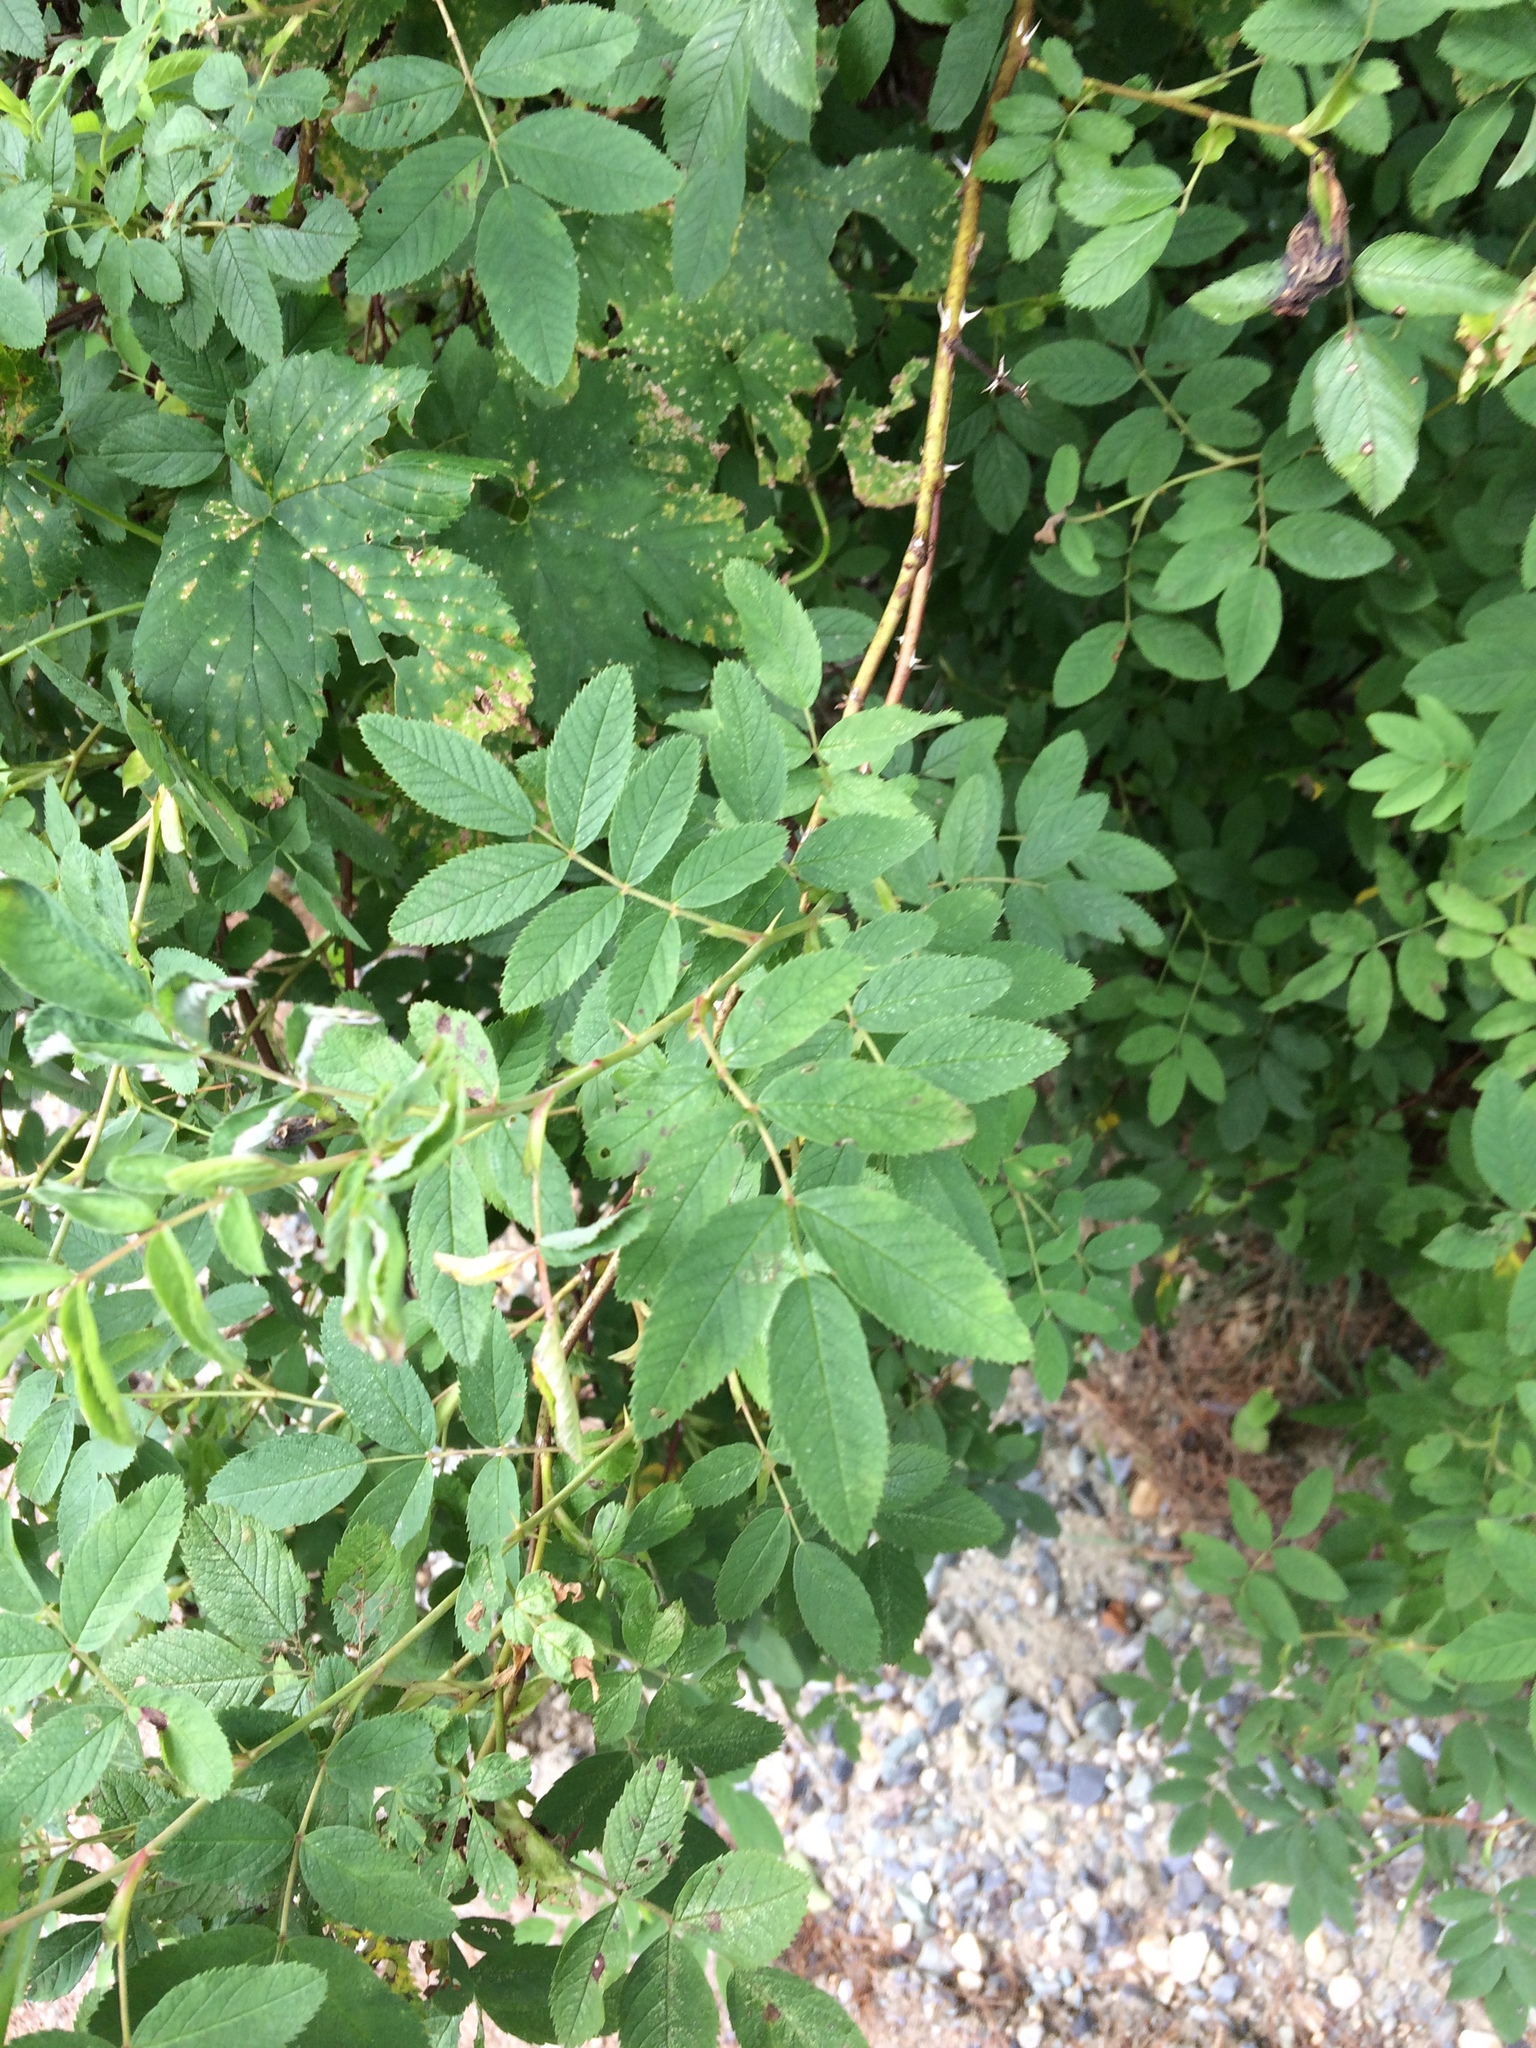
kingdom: Plantae
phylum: Tracheophyta
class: Magnoliopsida
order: Rosales
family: Rosaceae
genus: Rosa
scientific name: Rosa multiflora
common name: Multiflora rose
